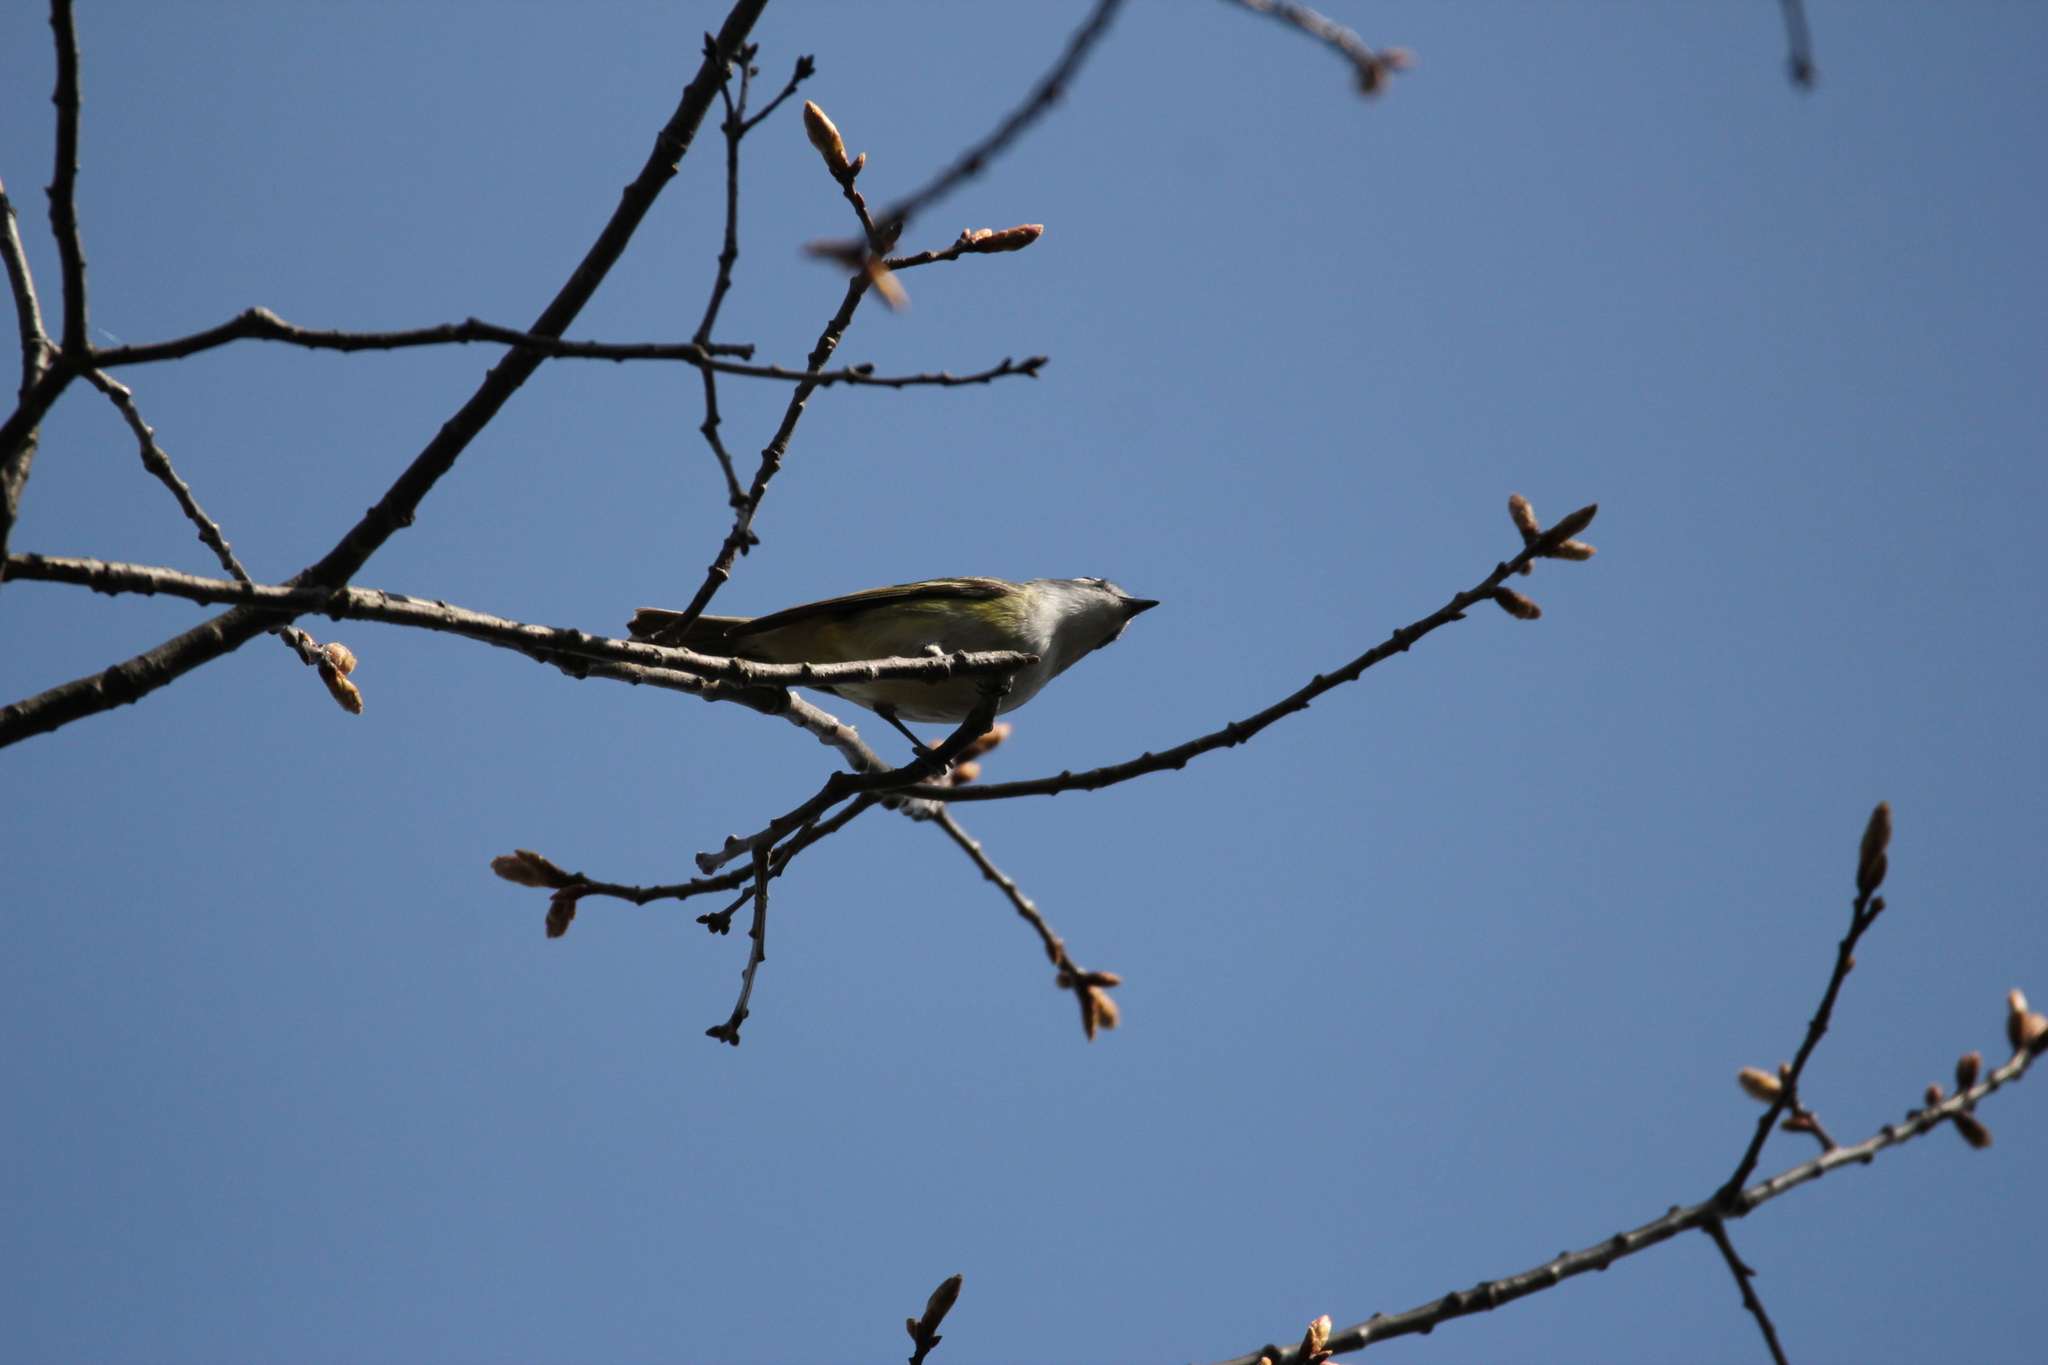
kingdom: Animalia
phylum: Chordata
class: Aves
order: Passeriformes
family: Vireonidae
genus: Vireo
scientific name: Vireo solitarius
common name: Blue-headed vireo
